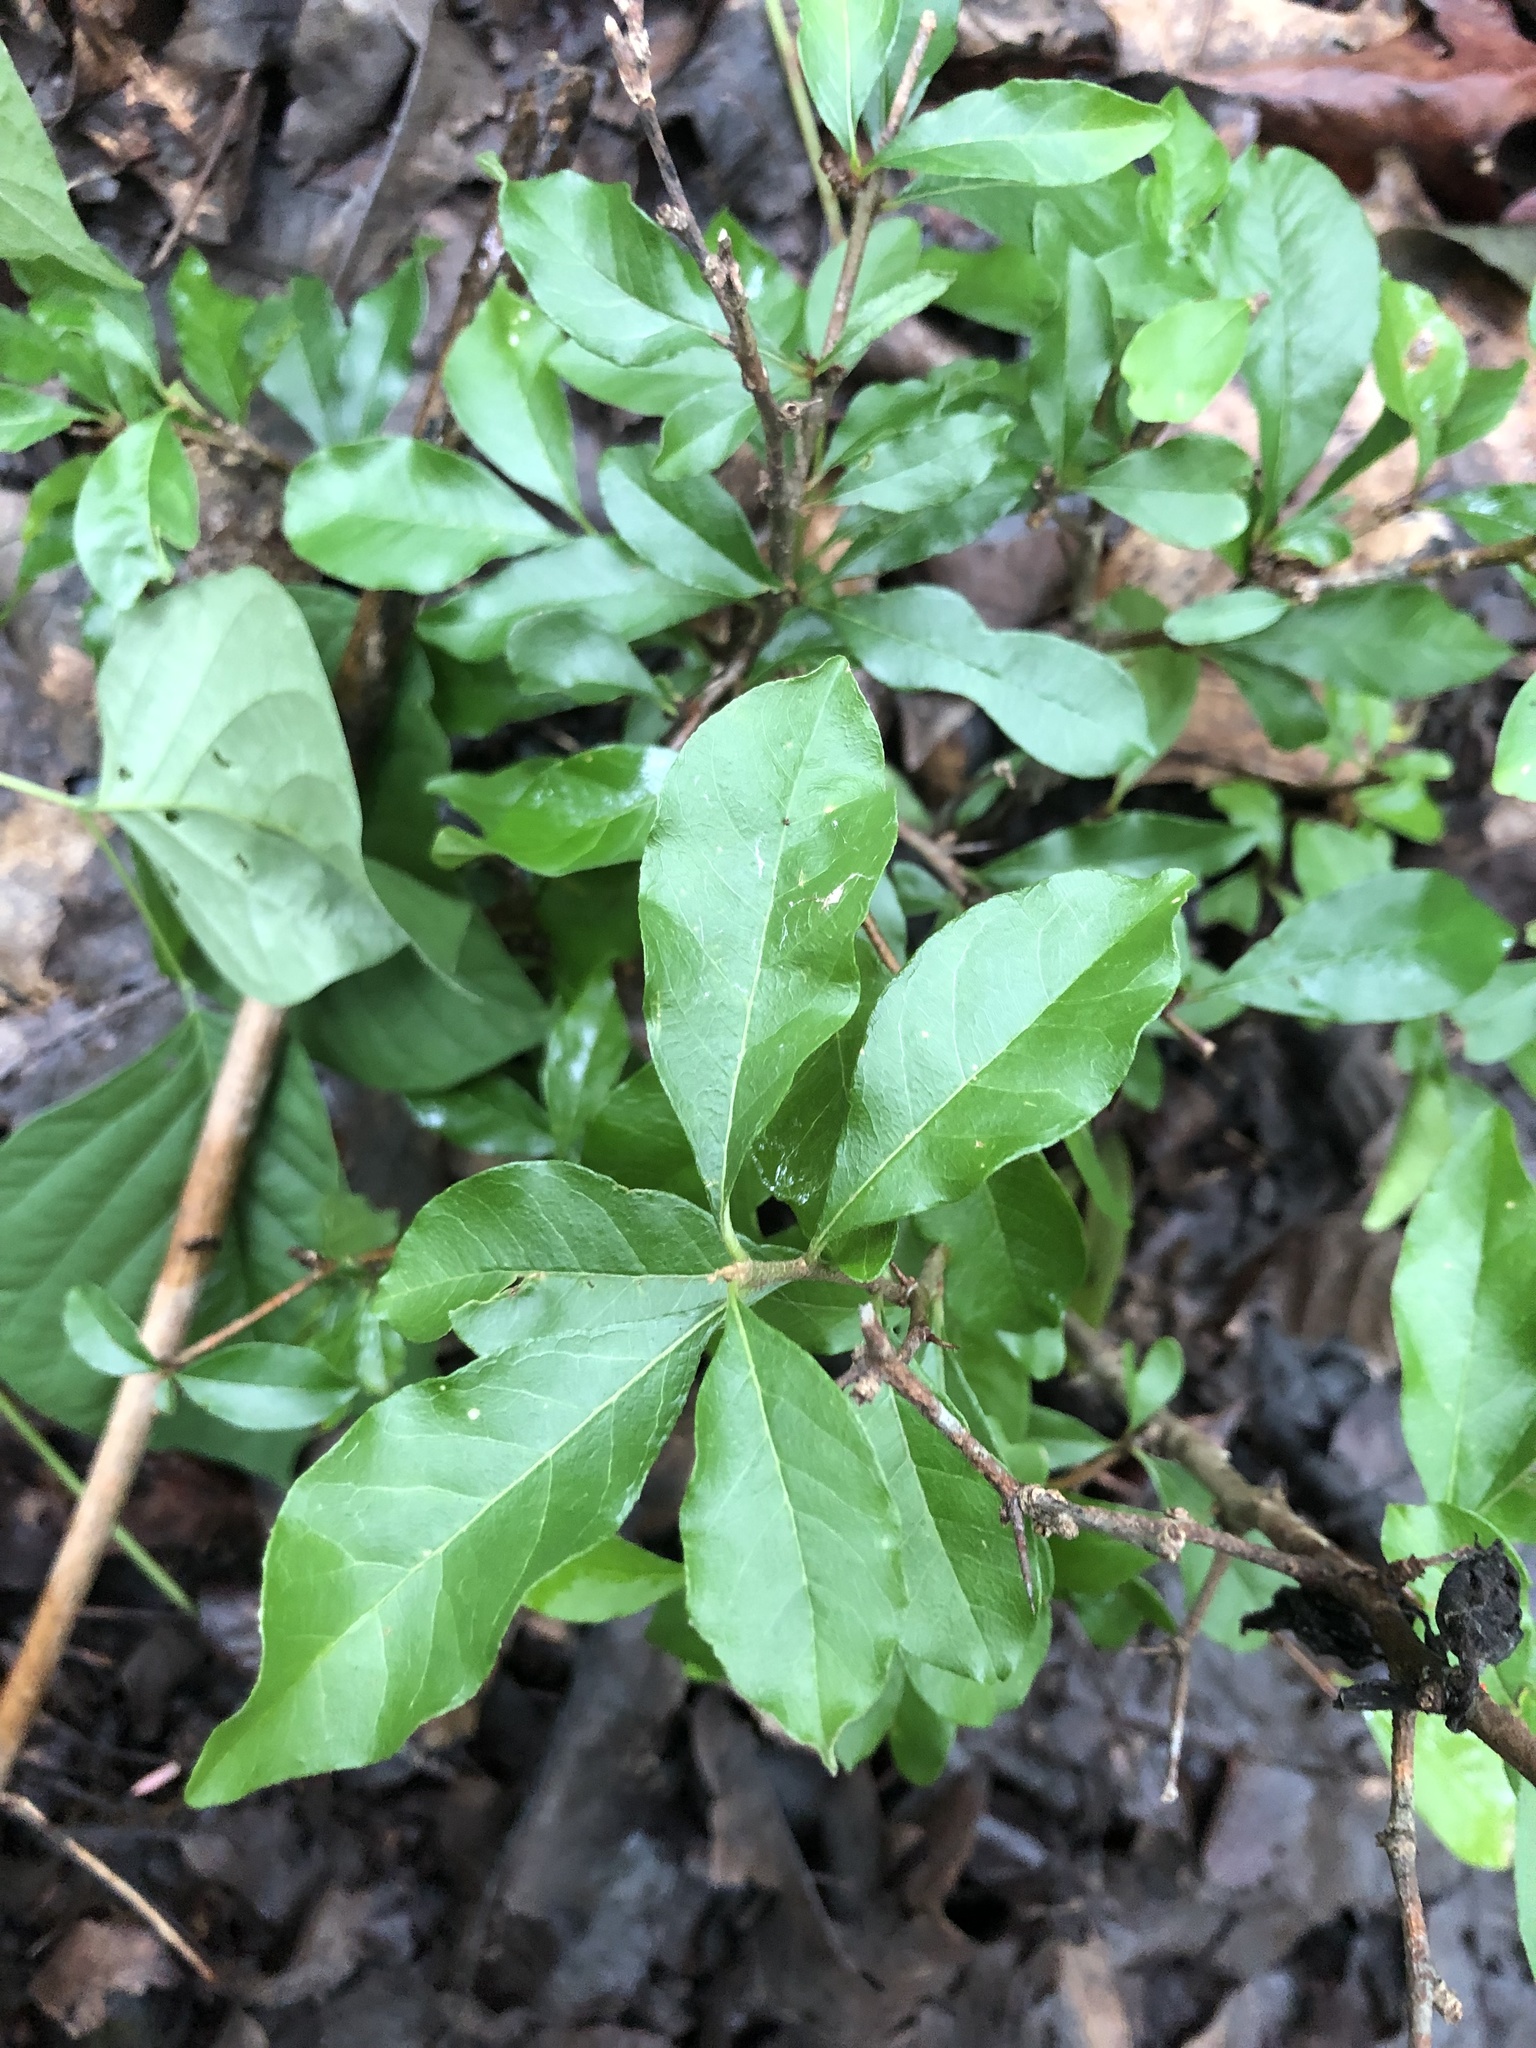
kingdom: Plantae
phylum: Tracheophyta
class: Magnoliopsida
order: Ericales
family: Sapotaceae
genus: Sideroxylon
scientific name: Sideroxylon lanuginosum
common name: Chittamwood
